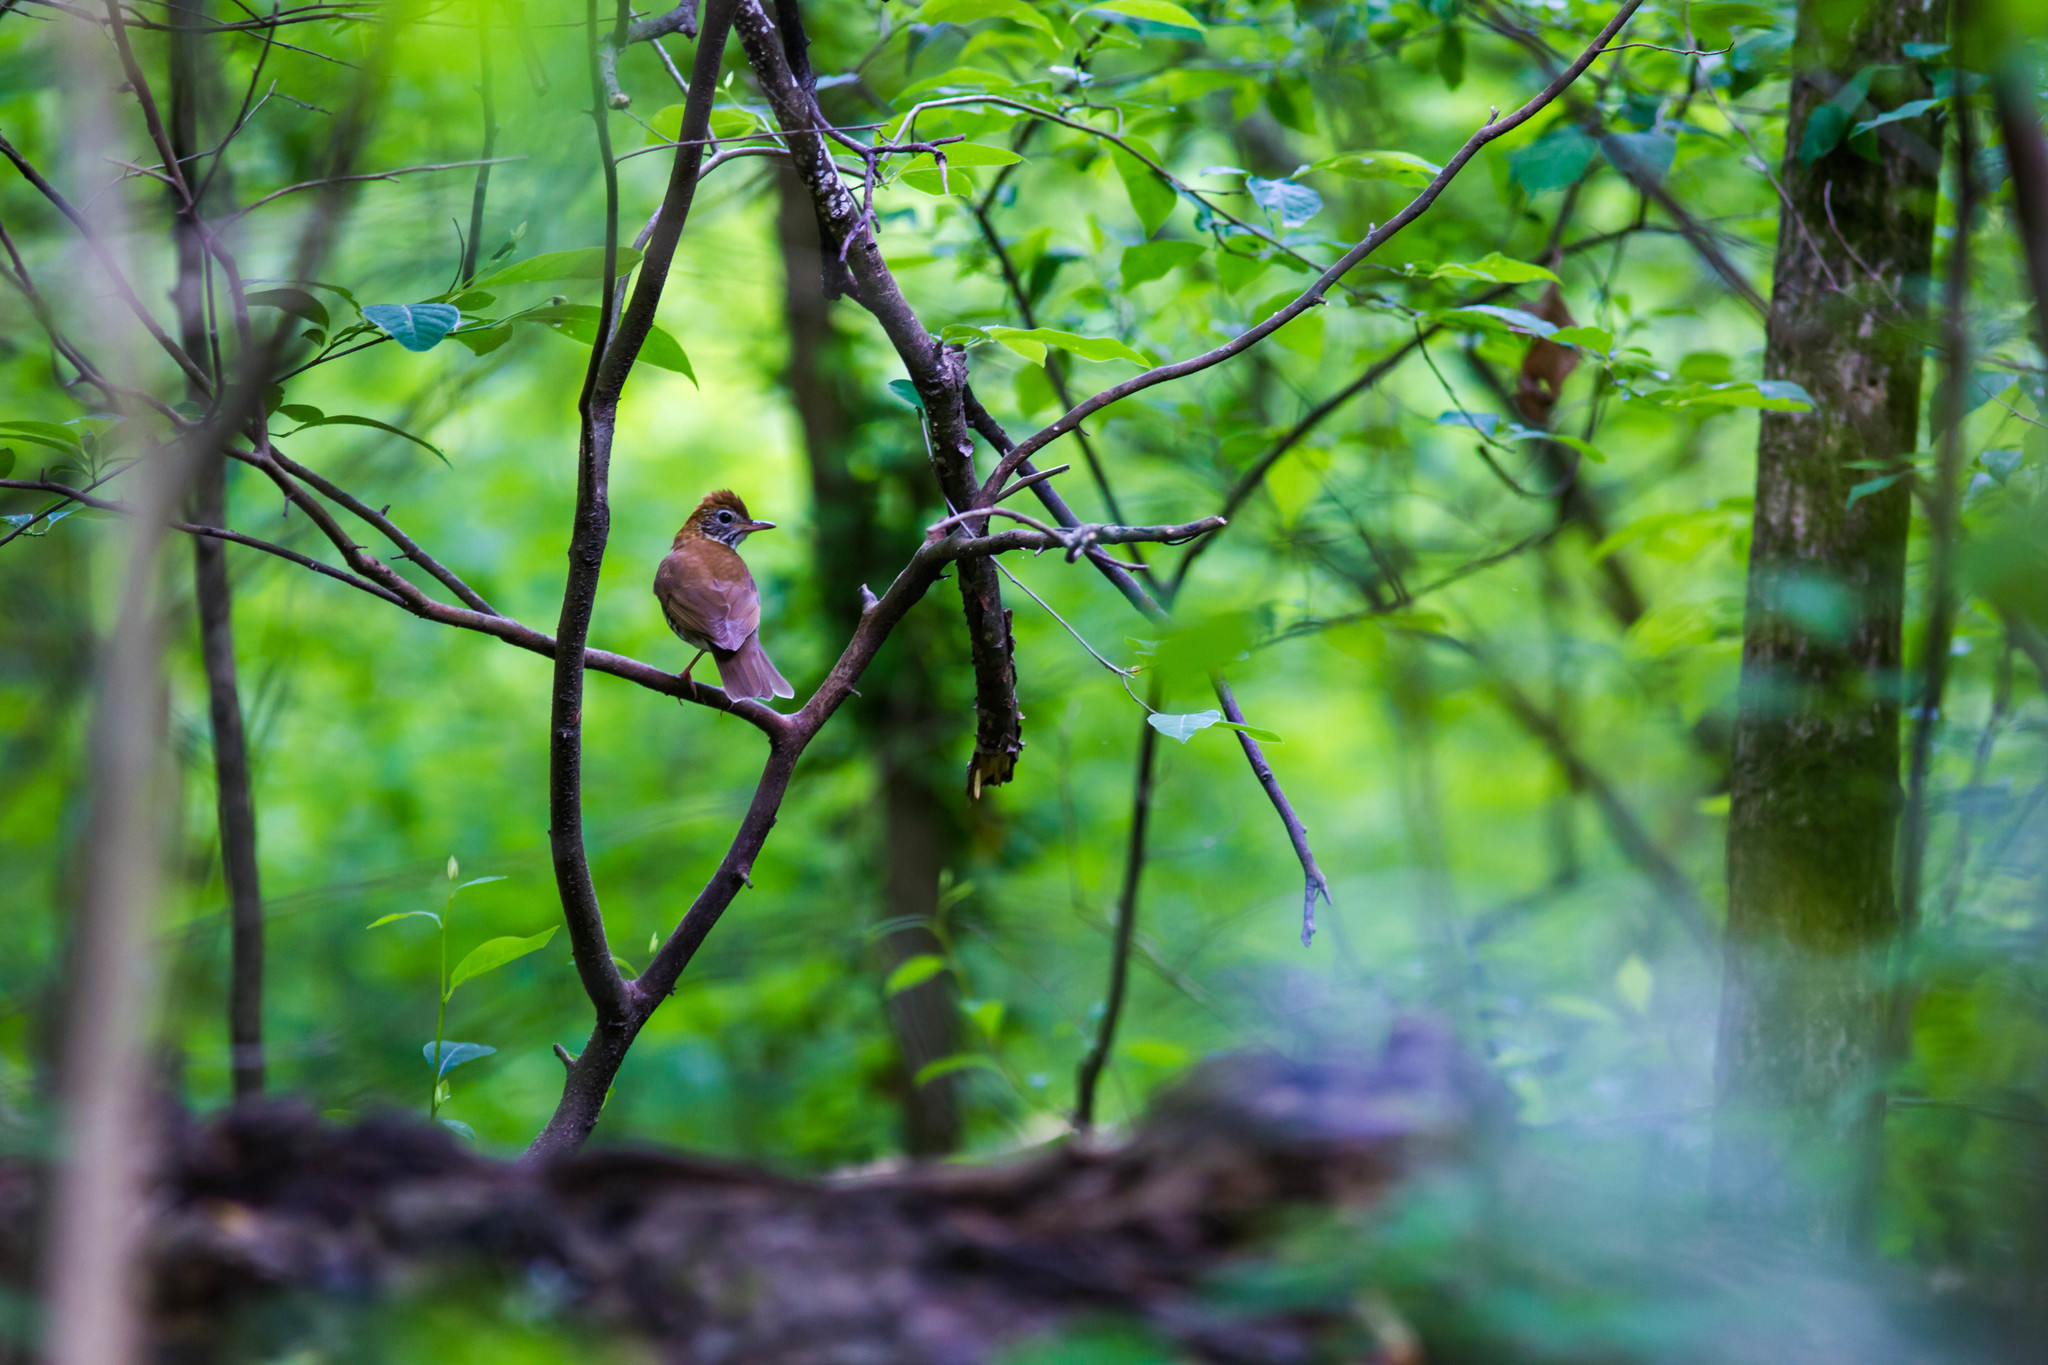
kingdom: Animalia
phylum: Chordata
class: Aves
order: Passeriformes
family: Turdidae
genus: Hylocichla
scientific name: Hylocichla mustelina
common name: Wood thrush
